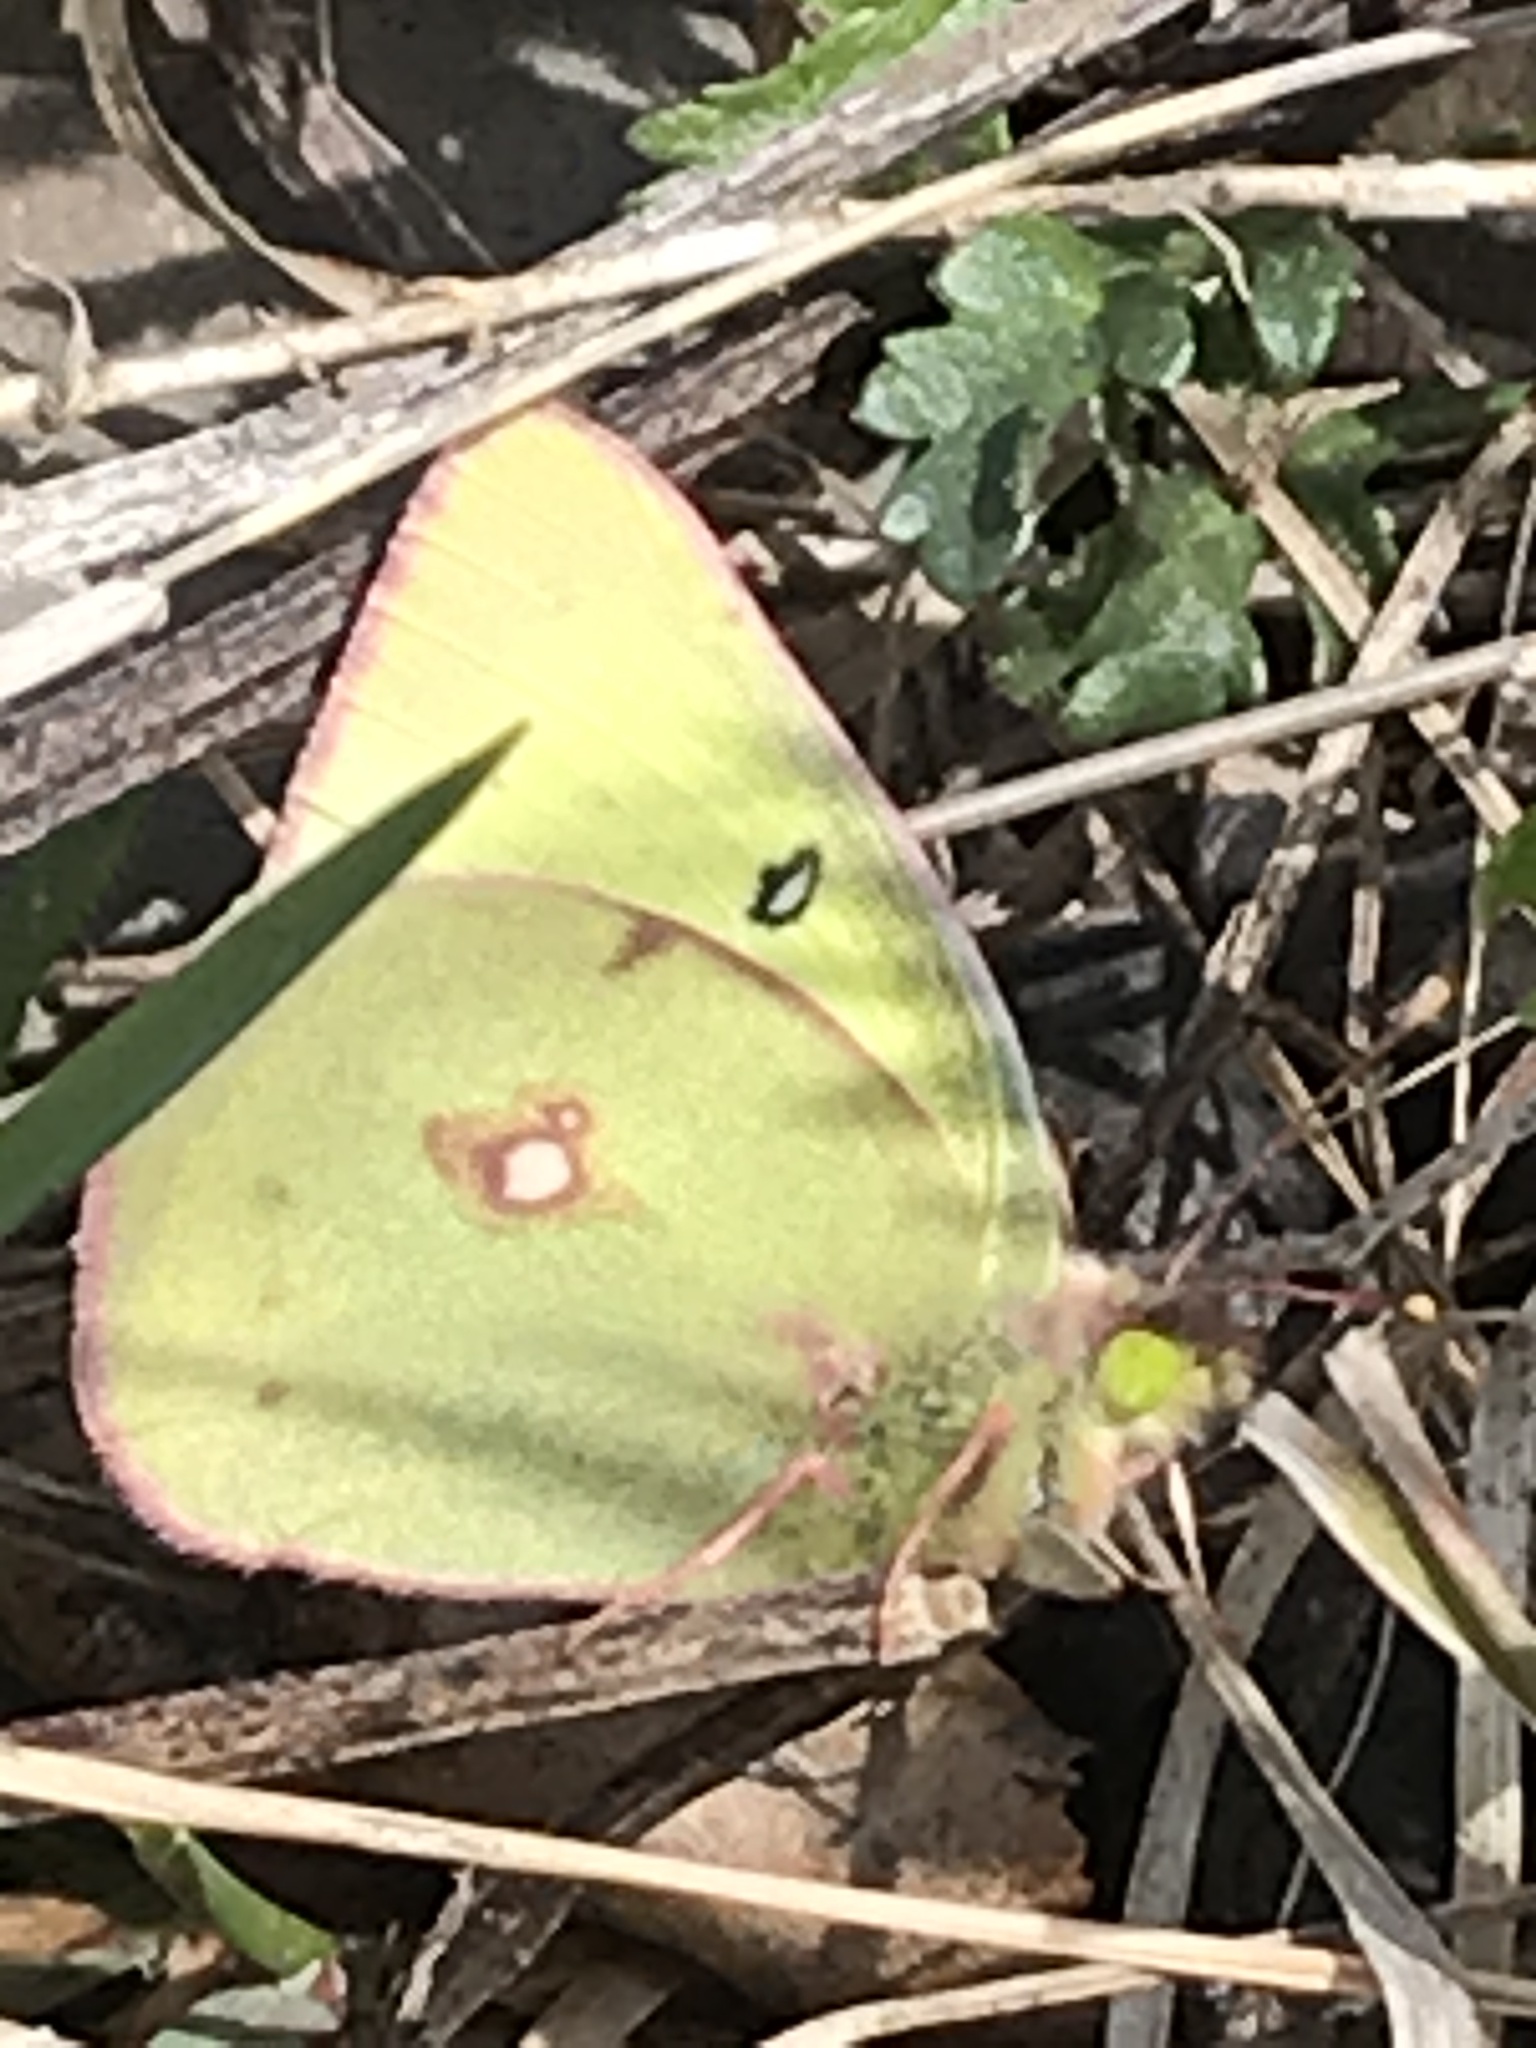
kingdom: Animalia
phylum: Arthropoda
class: Insecta
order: Lepidoptera
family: Pieridae
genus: Colias
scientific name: Colias philodice
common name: Clouded sulphur
